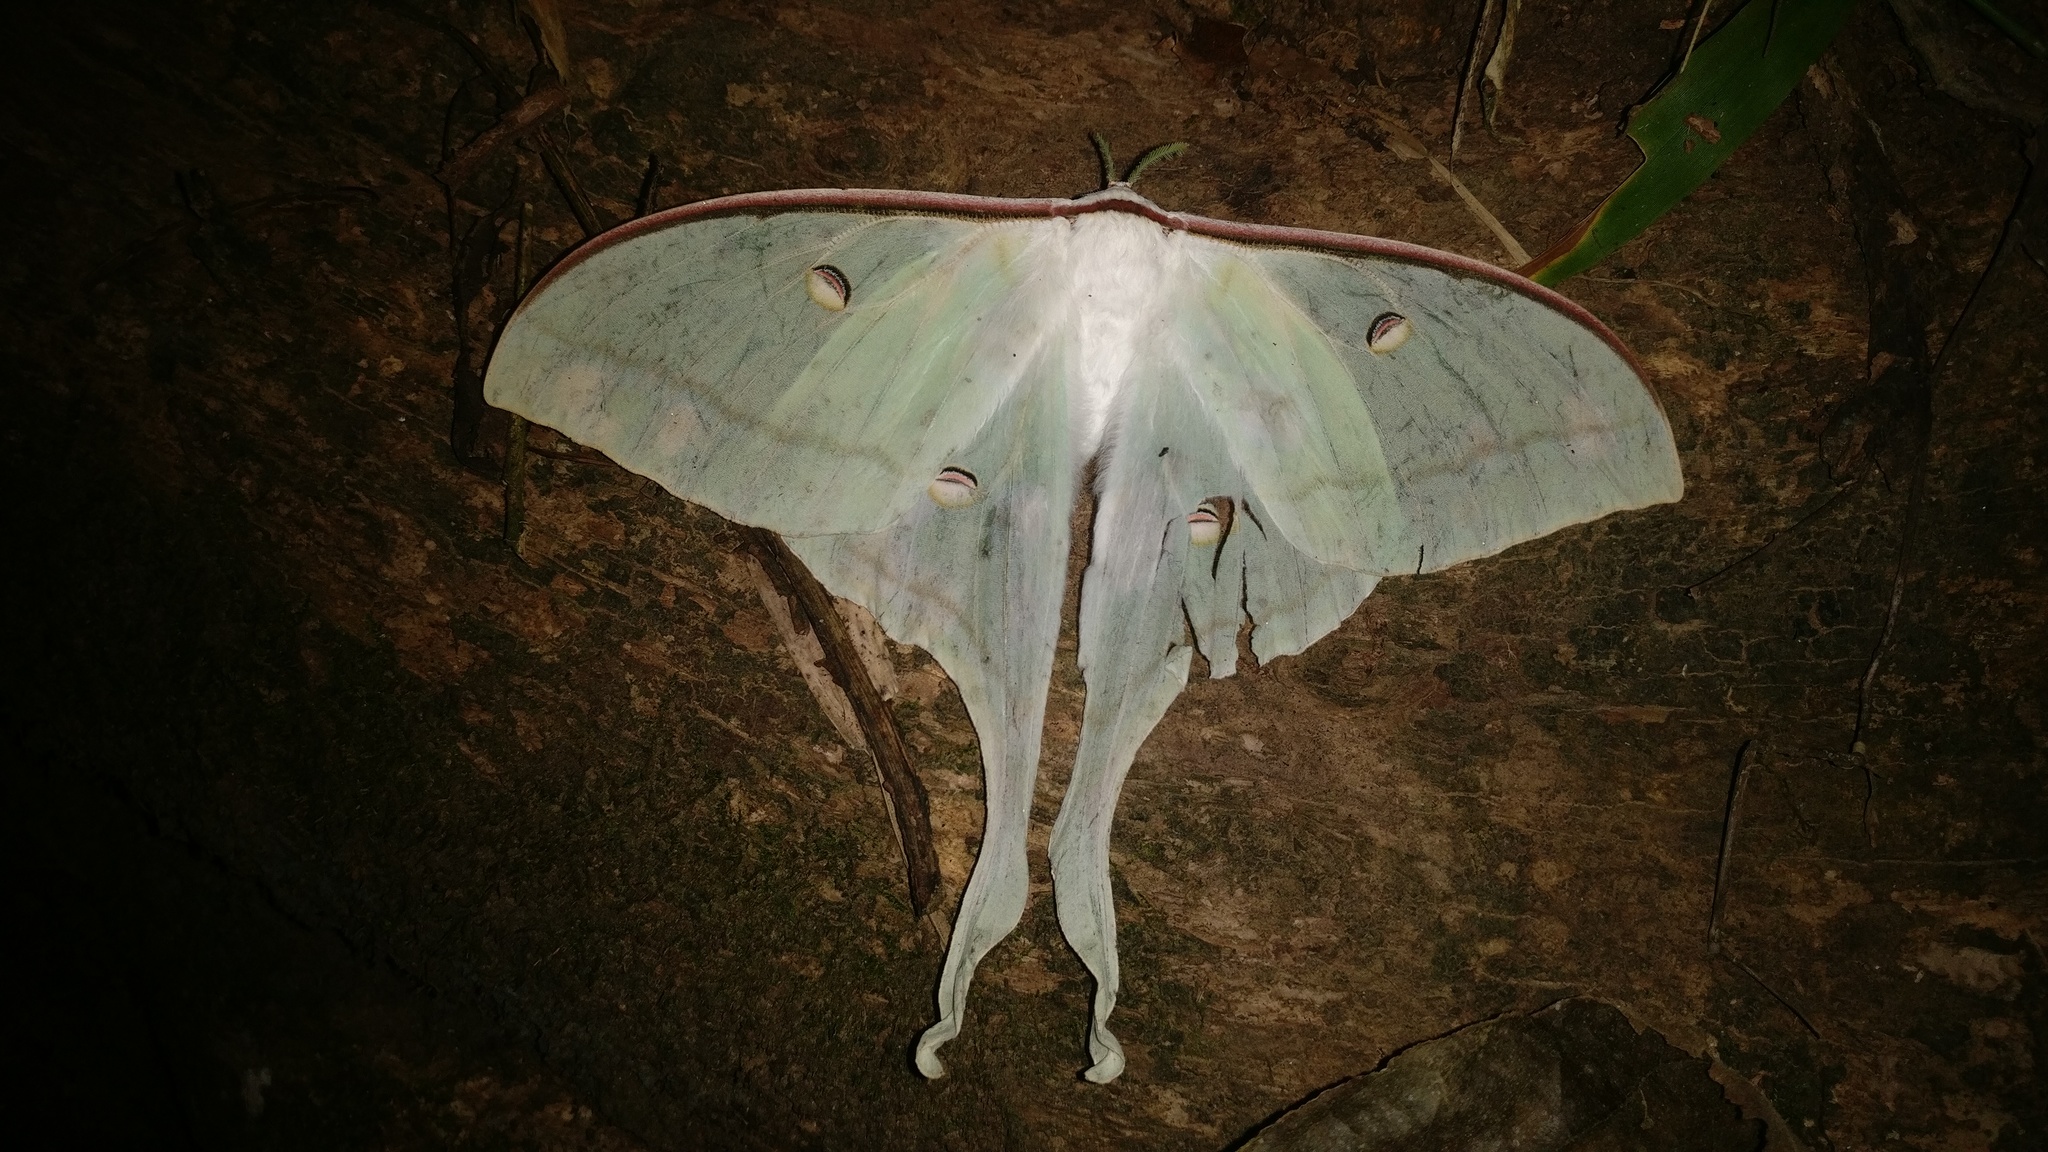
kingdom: Animalia
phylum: Arthropoda
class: Insecta
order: Lepidoptera
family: Saturniidae
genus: Actias
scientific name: Actias selene
